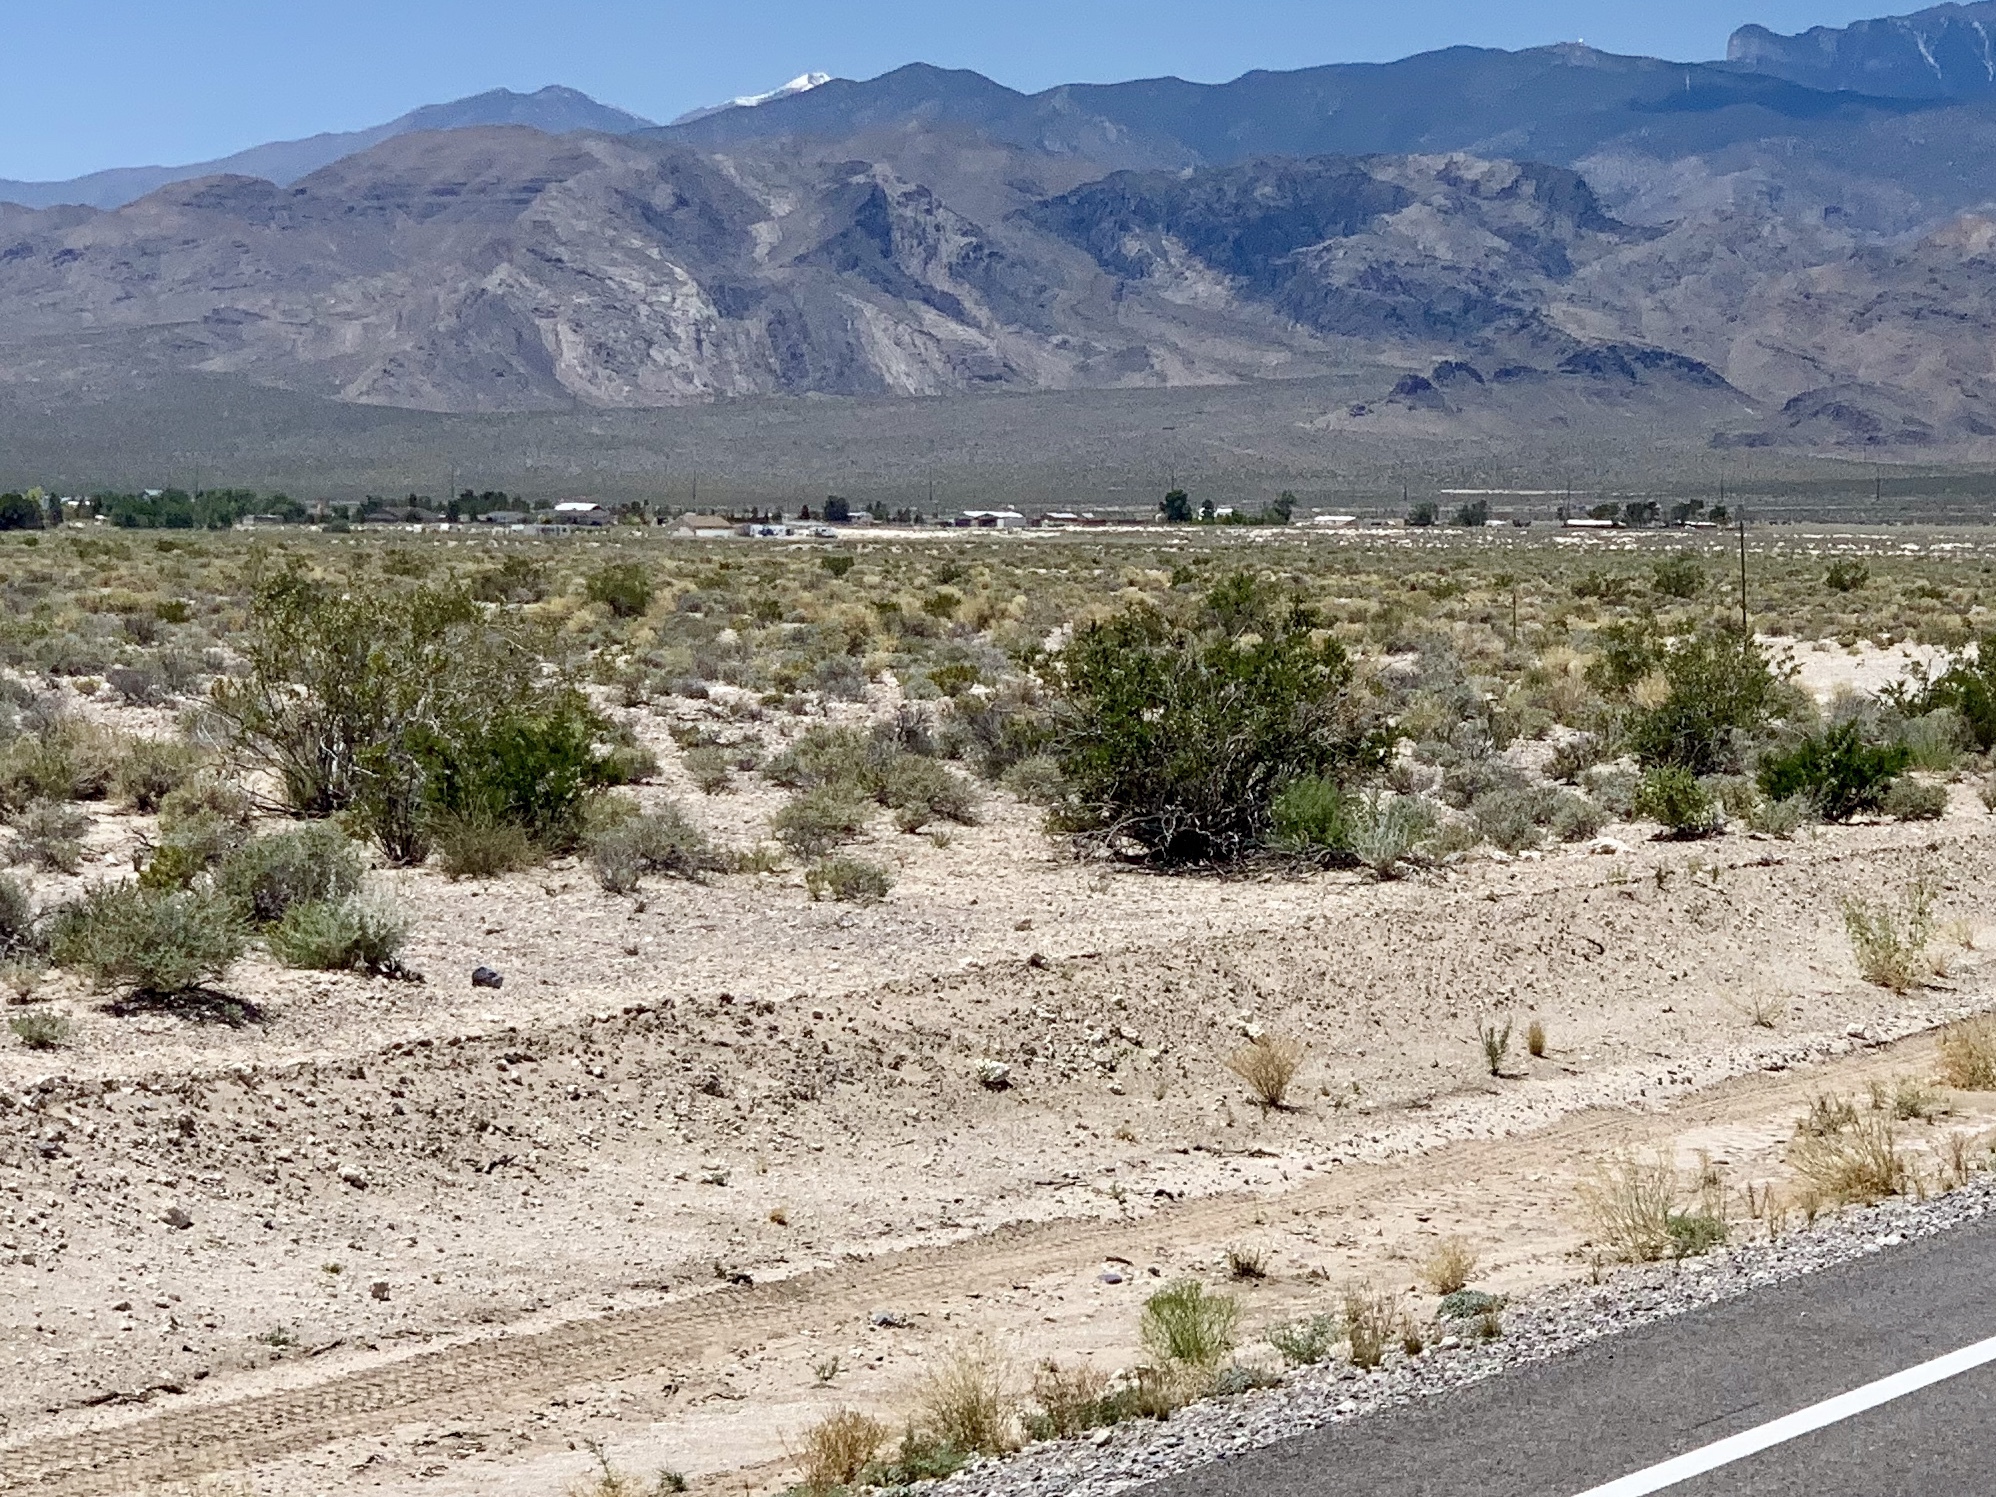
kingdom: Plantae
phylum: Tracheophyta
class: Magnoliopsida
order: Zygophyllales
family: Zygophyllaceae
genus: Larrea
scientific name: Larrea tridentata
